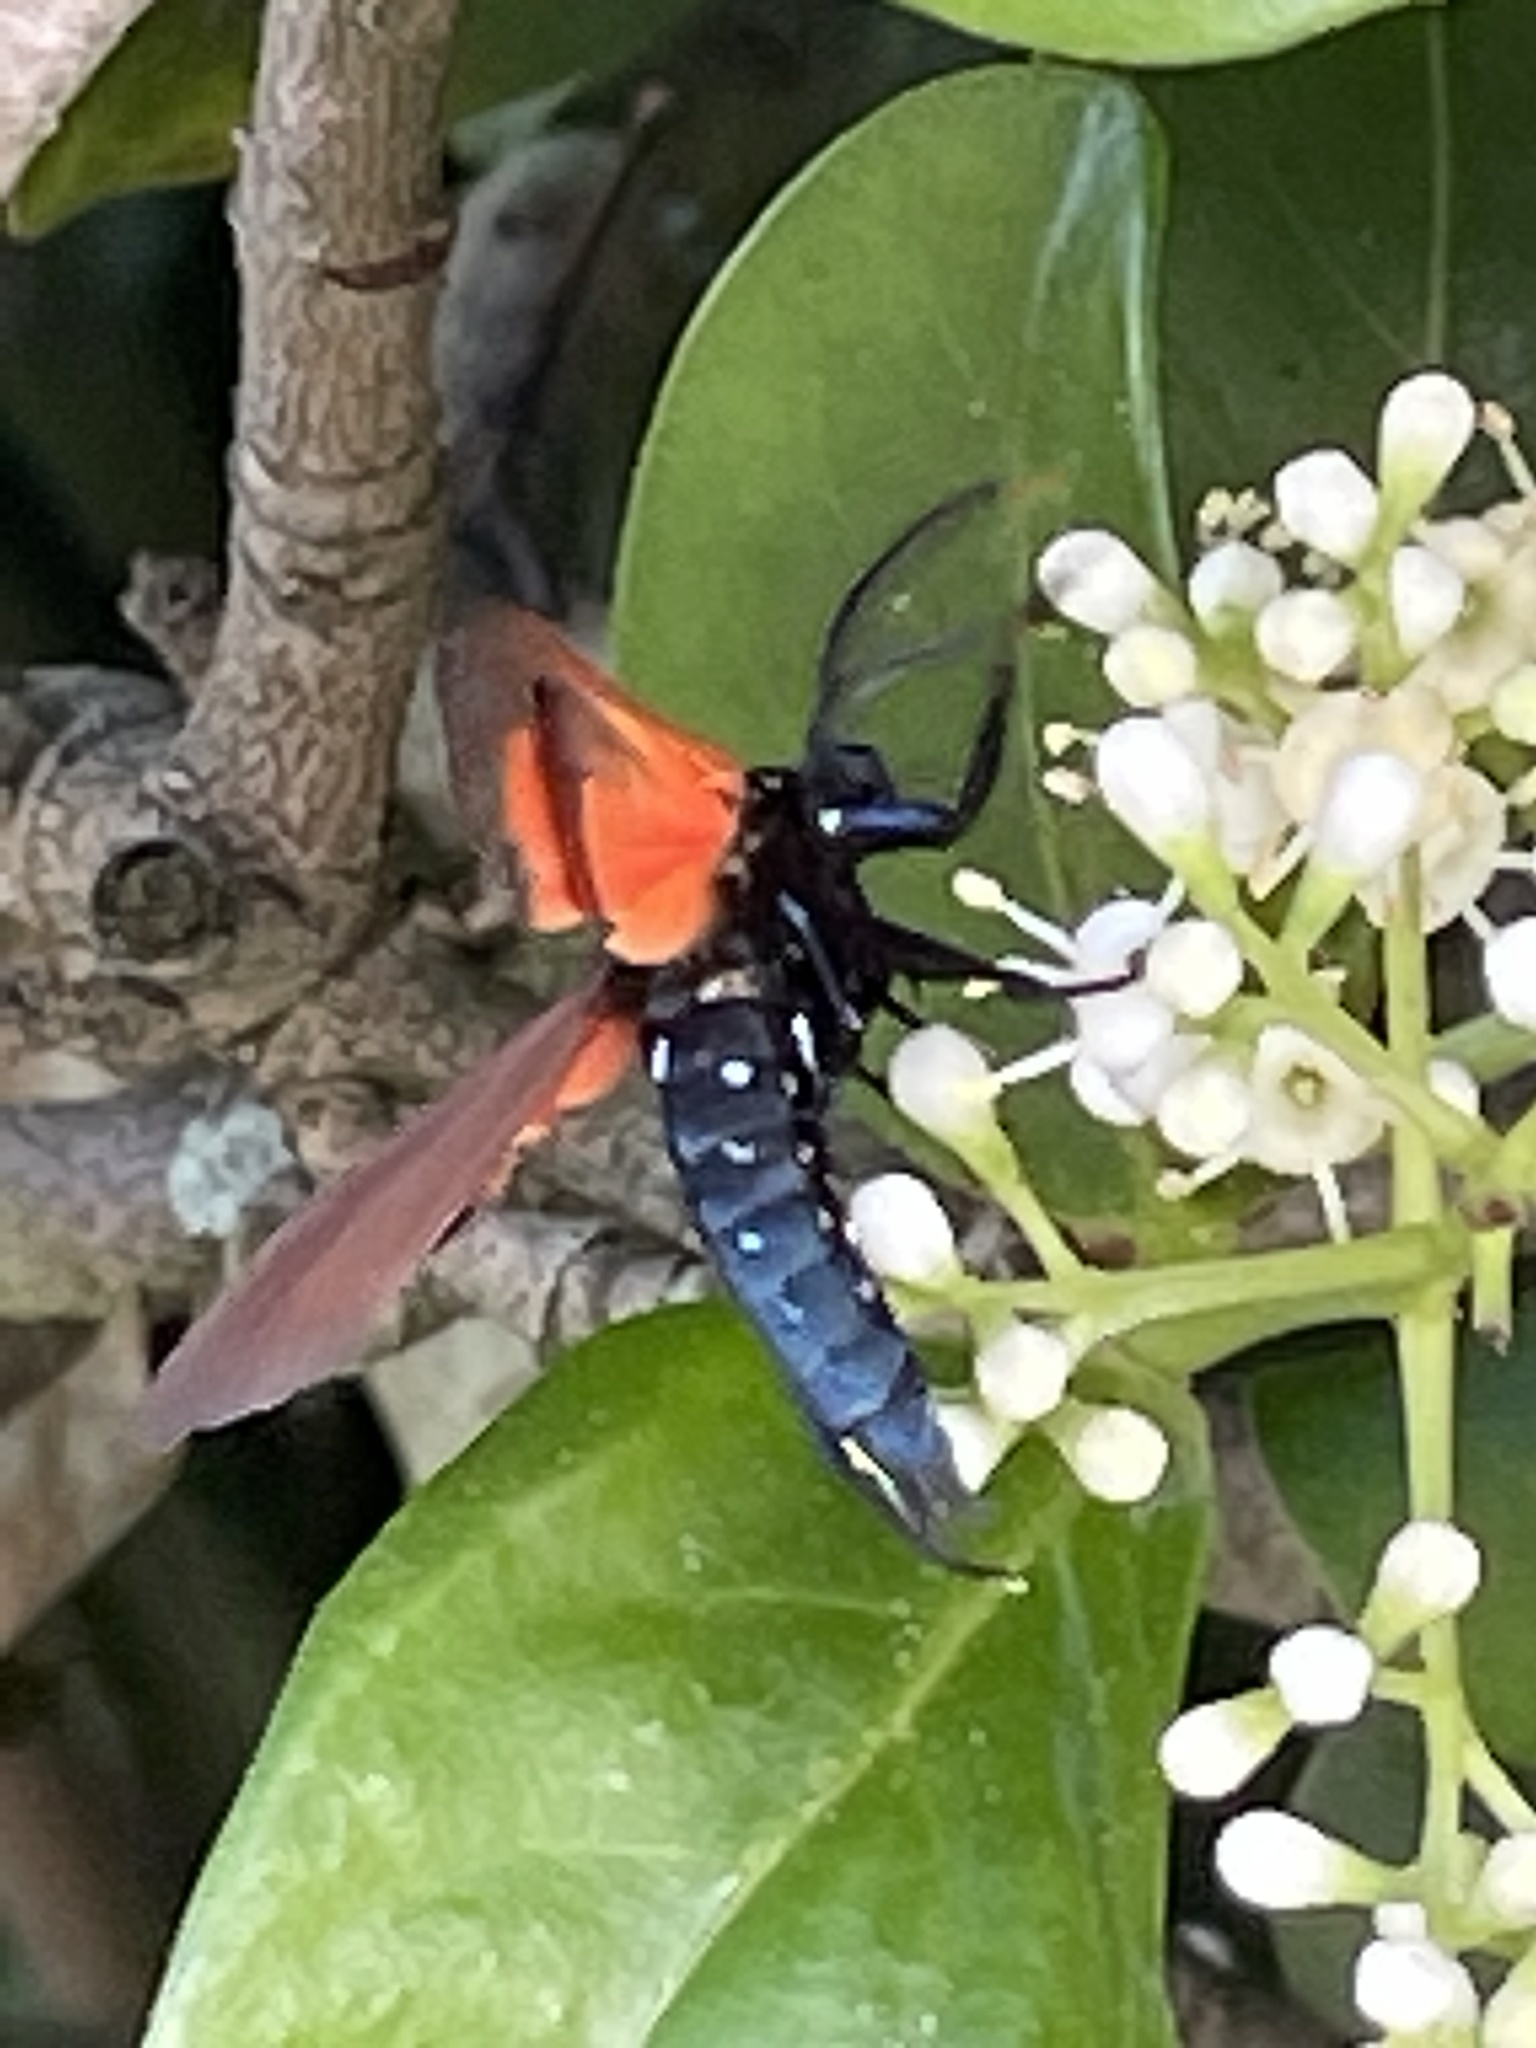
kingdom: Animalia
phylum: Arthropoda
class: Insecta
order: Lepidoptera
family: Erebidae
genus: Empyreuma
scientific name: Empyreuma pugione
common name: Spotted oleander caterpillar moth
